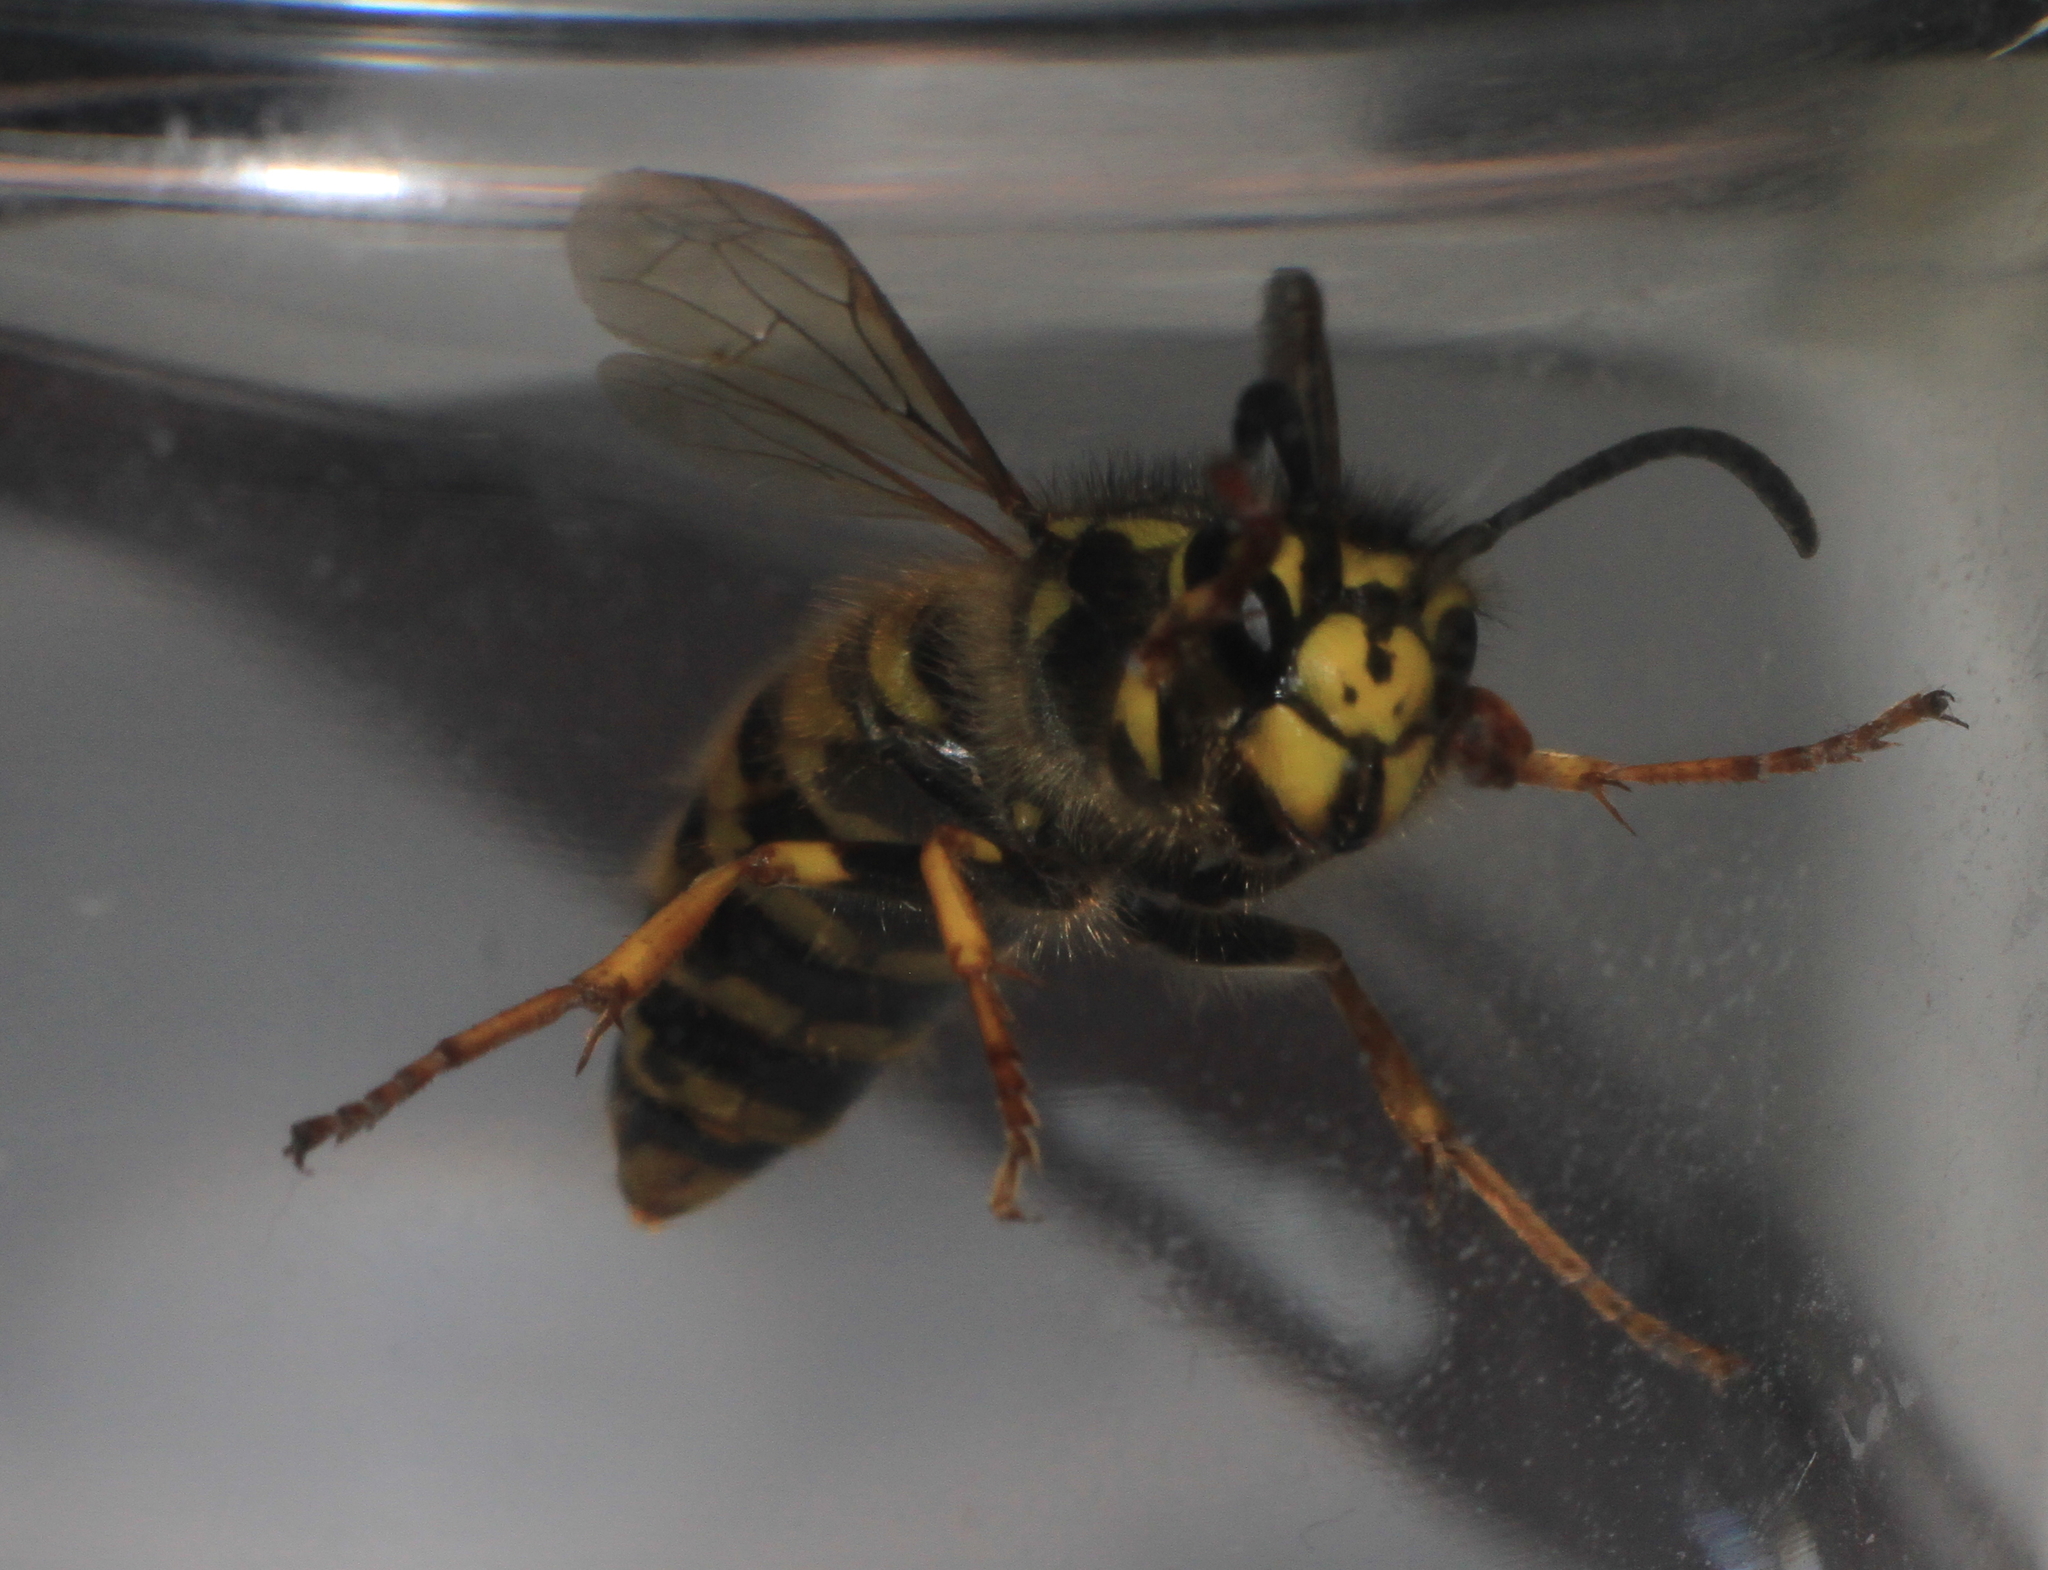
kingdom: Animalia
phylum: Arthropoda
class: Insecta
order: Hymenoptera
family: Vespidae
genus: Vespula
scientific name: Vespula germanica
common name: German wasp
